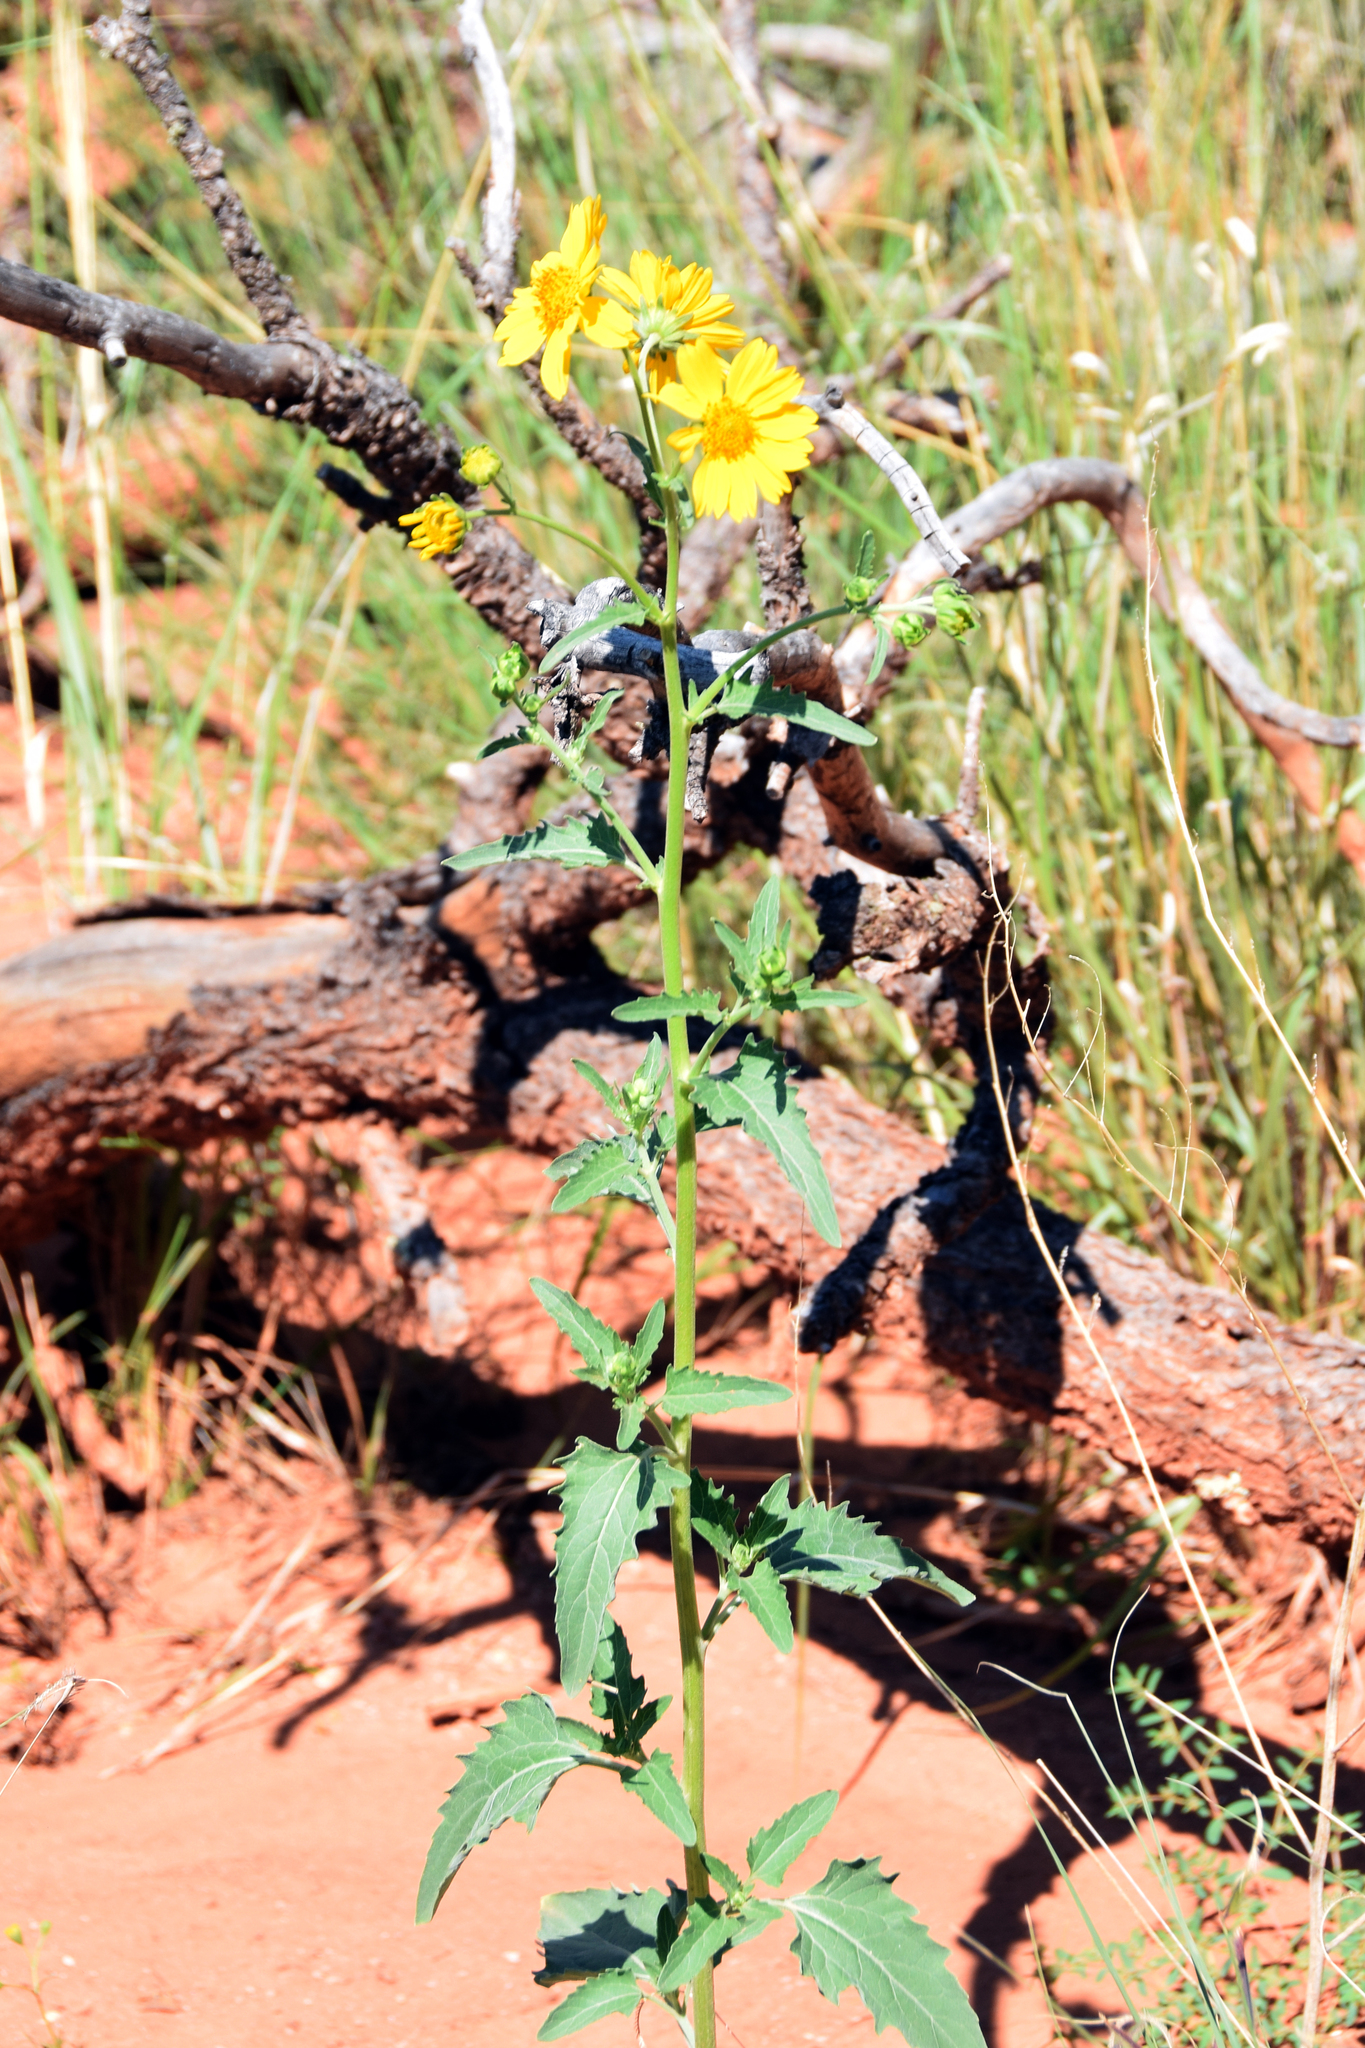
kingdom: Plantae
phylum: Tracheophyta
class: Magnoliopsida
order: Asterales
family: Asteraceae
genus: Verbesina
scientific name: Verbesina encelioides
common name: Golden crownbeard
